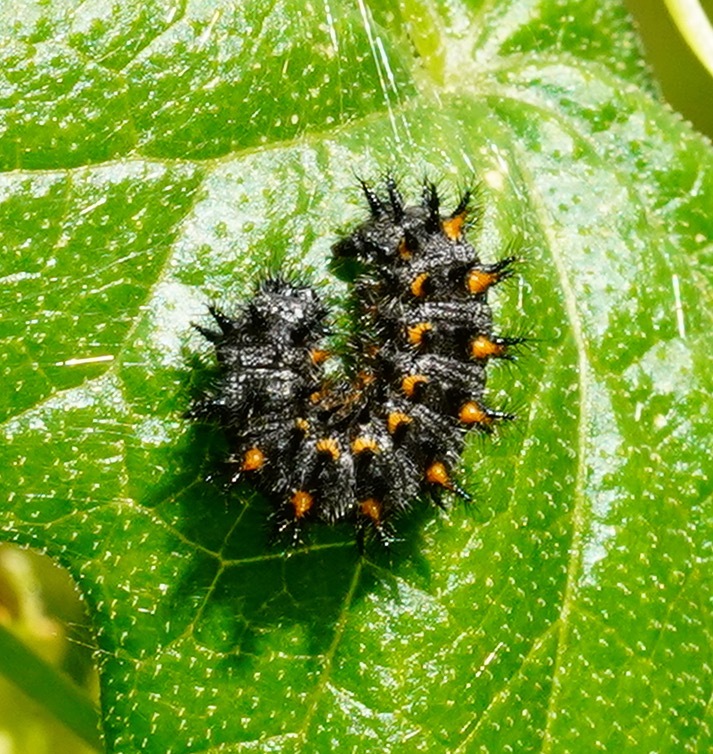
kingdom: Animalia
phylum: Arthropoda
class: Insecta
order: Lepidoptera
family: Nymphalidae
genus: Occidryas
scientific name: Occidryas chalcedona
